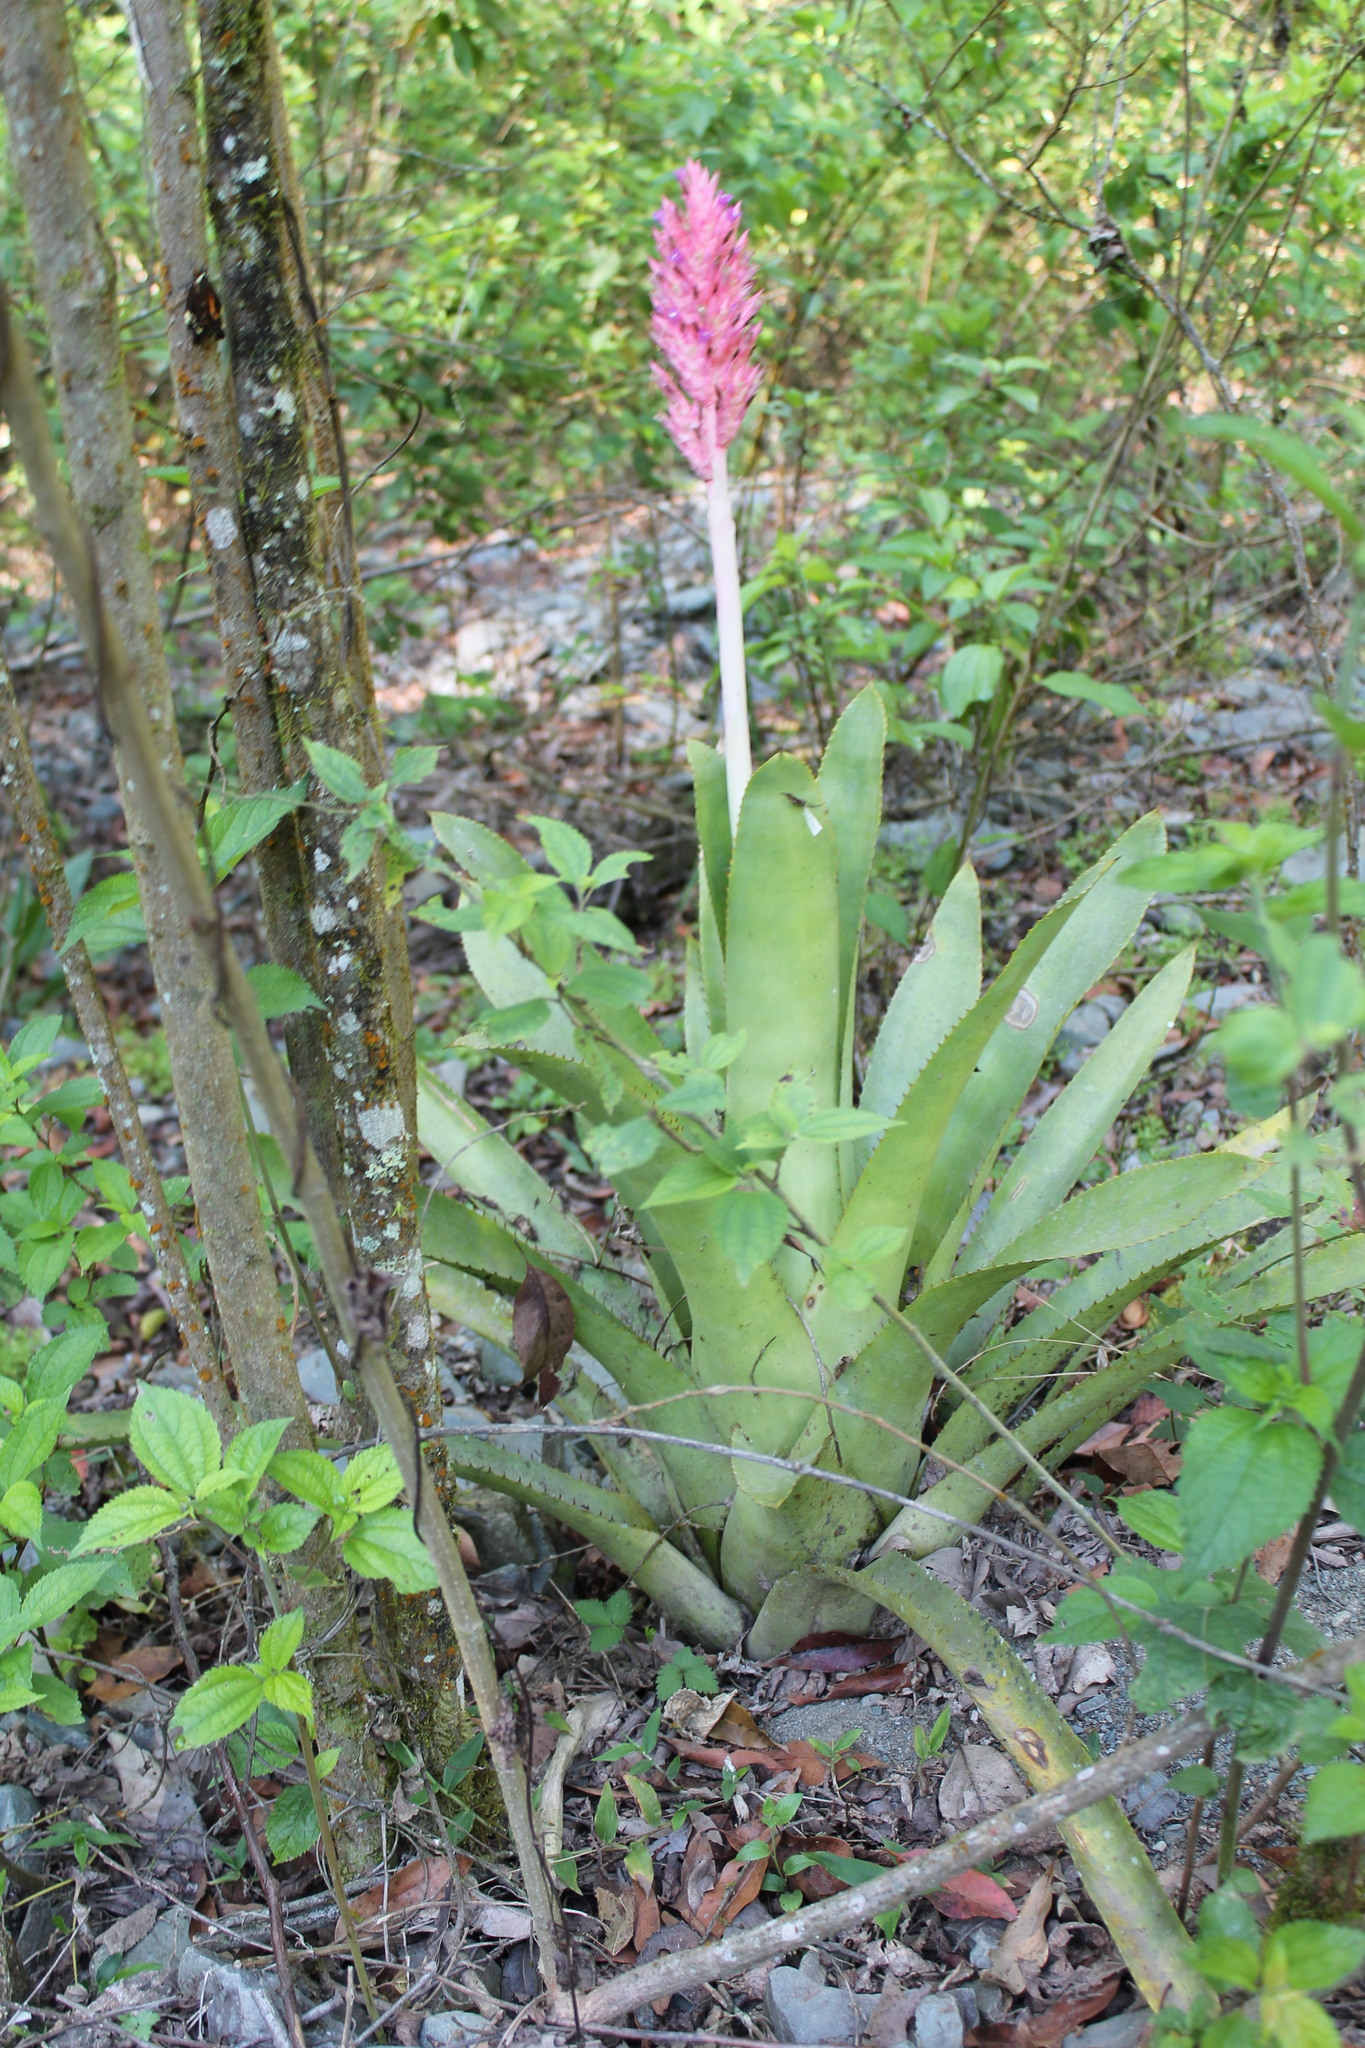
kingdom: Plantae
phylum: Tracheophyta
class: Liliopsida
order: Poales
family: Bromeliaceae
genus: Aechmea
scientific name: Aechmea distichantha
